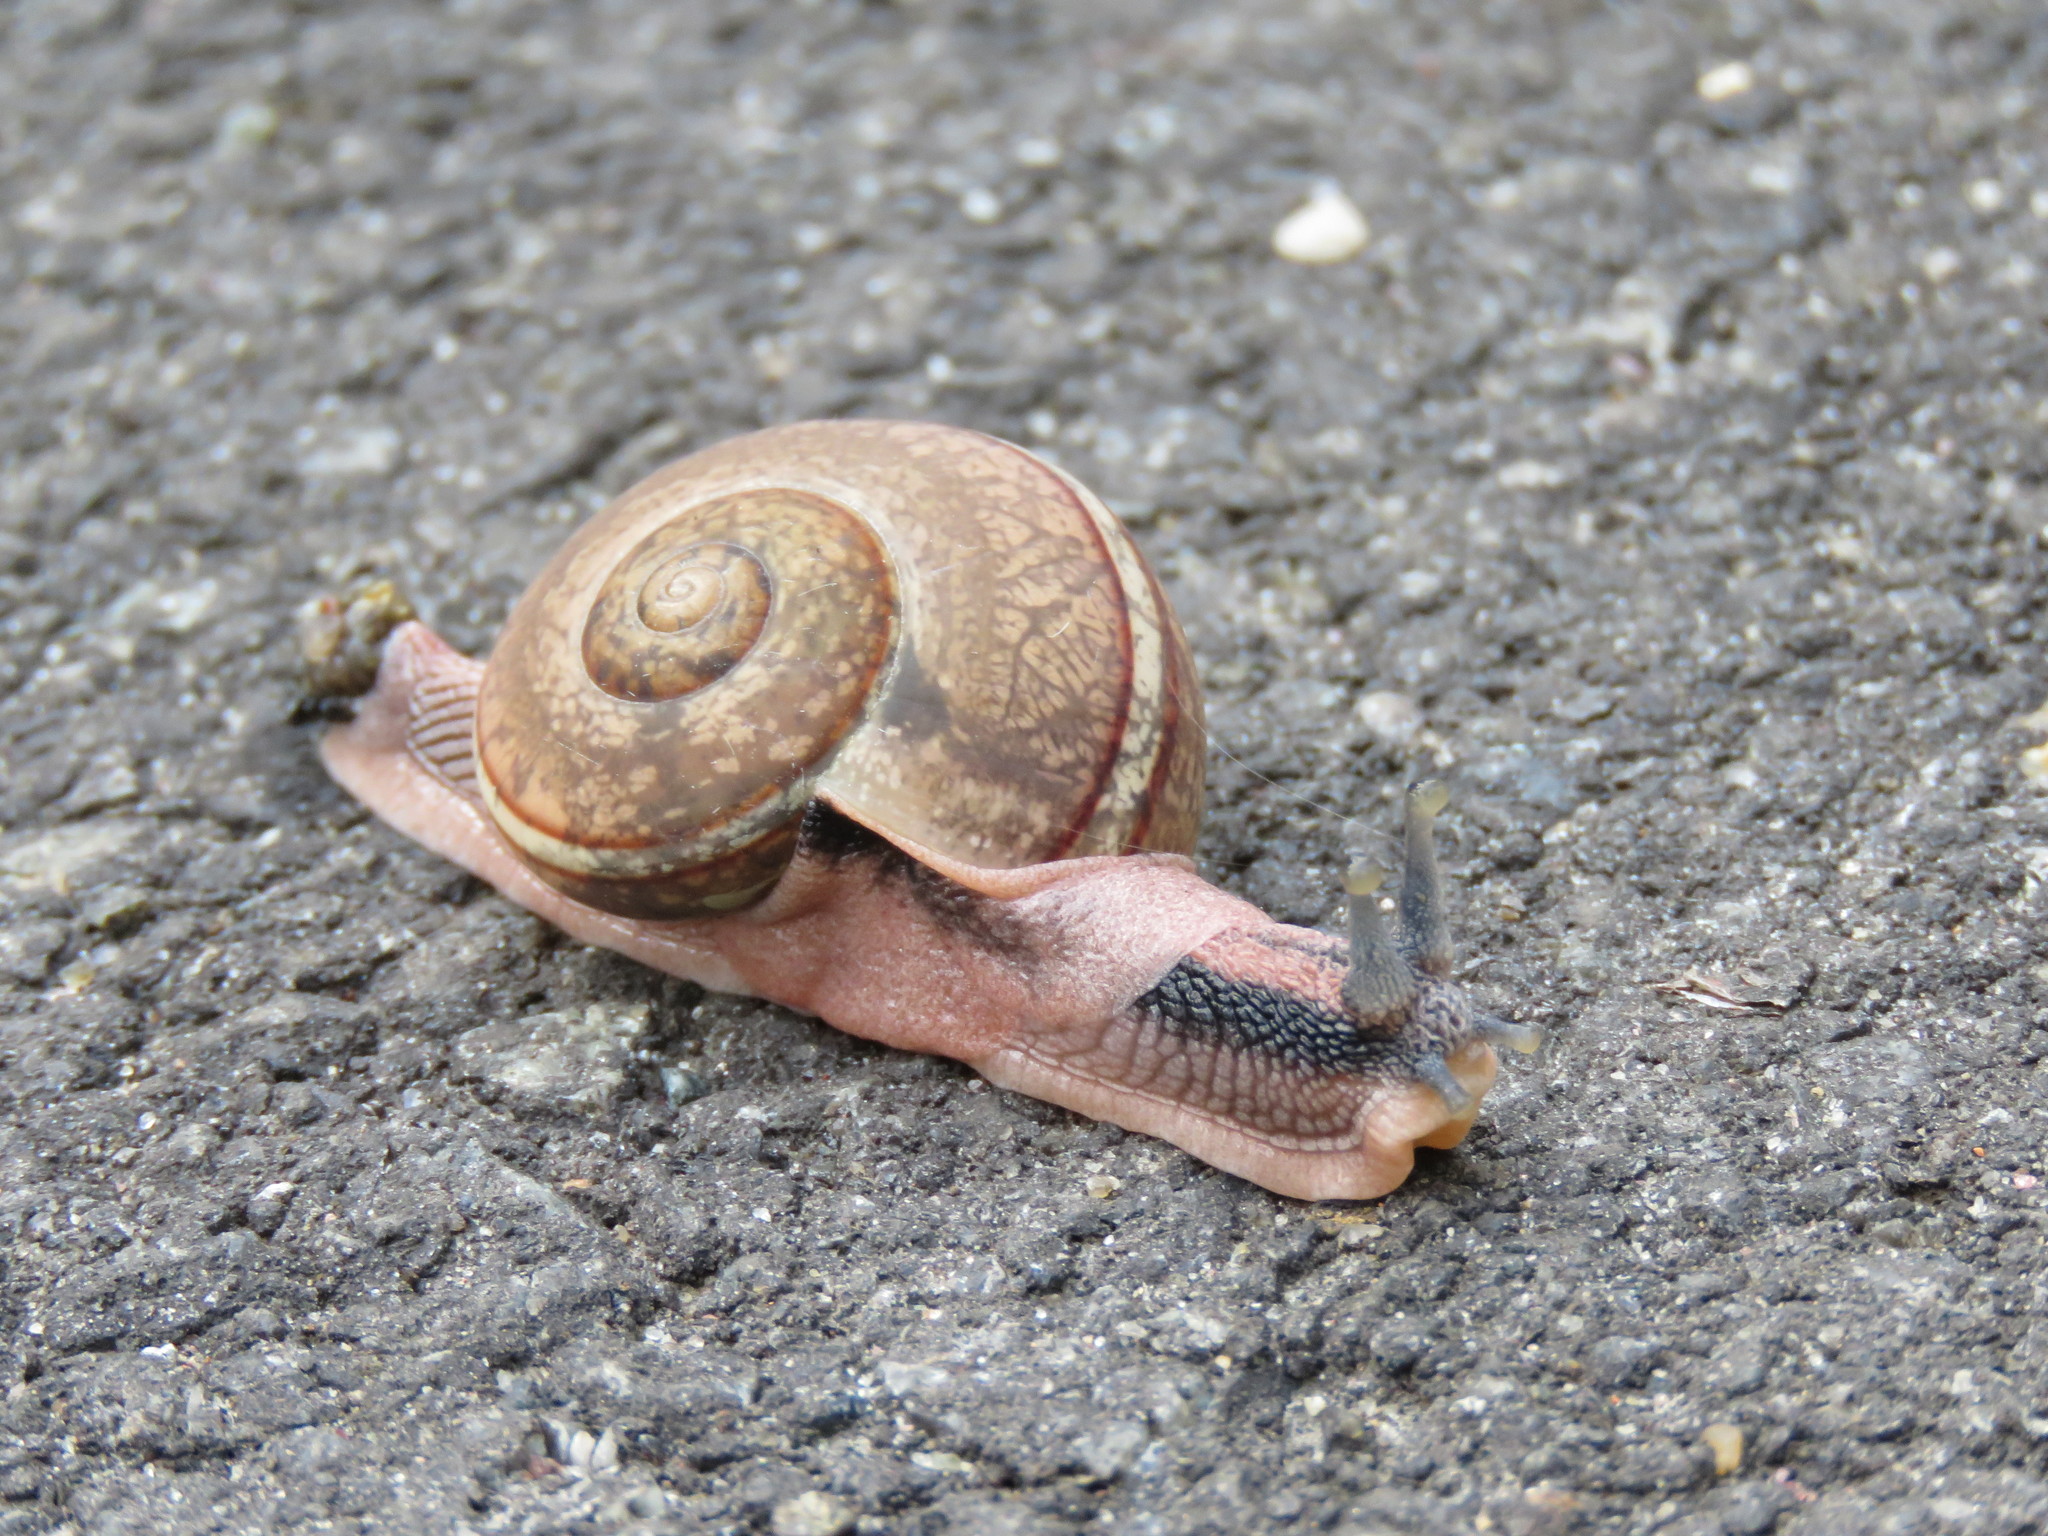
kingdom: Animalia
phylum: Mollusca
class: Gastropoda
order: Stylommatophora
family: Ariophantidae
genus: Ariophanta
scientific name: Ariophanta exilis
